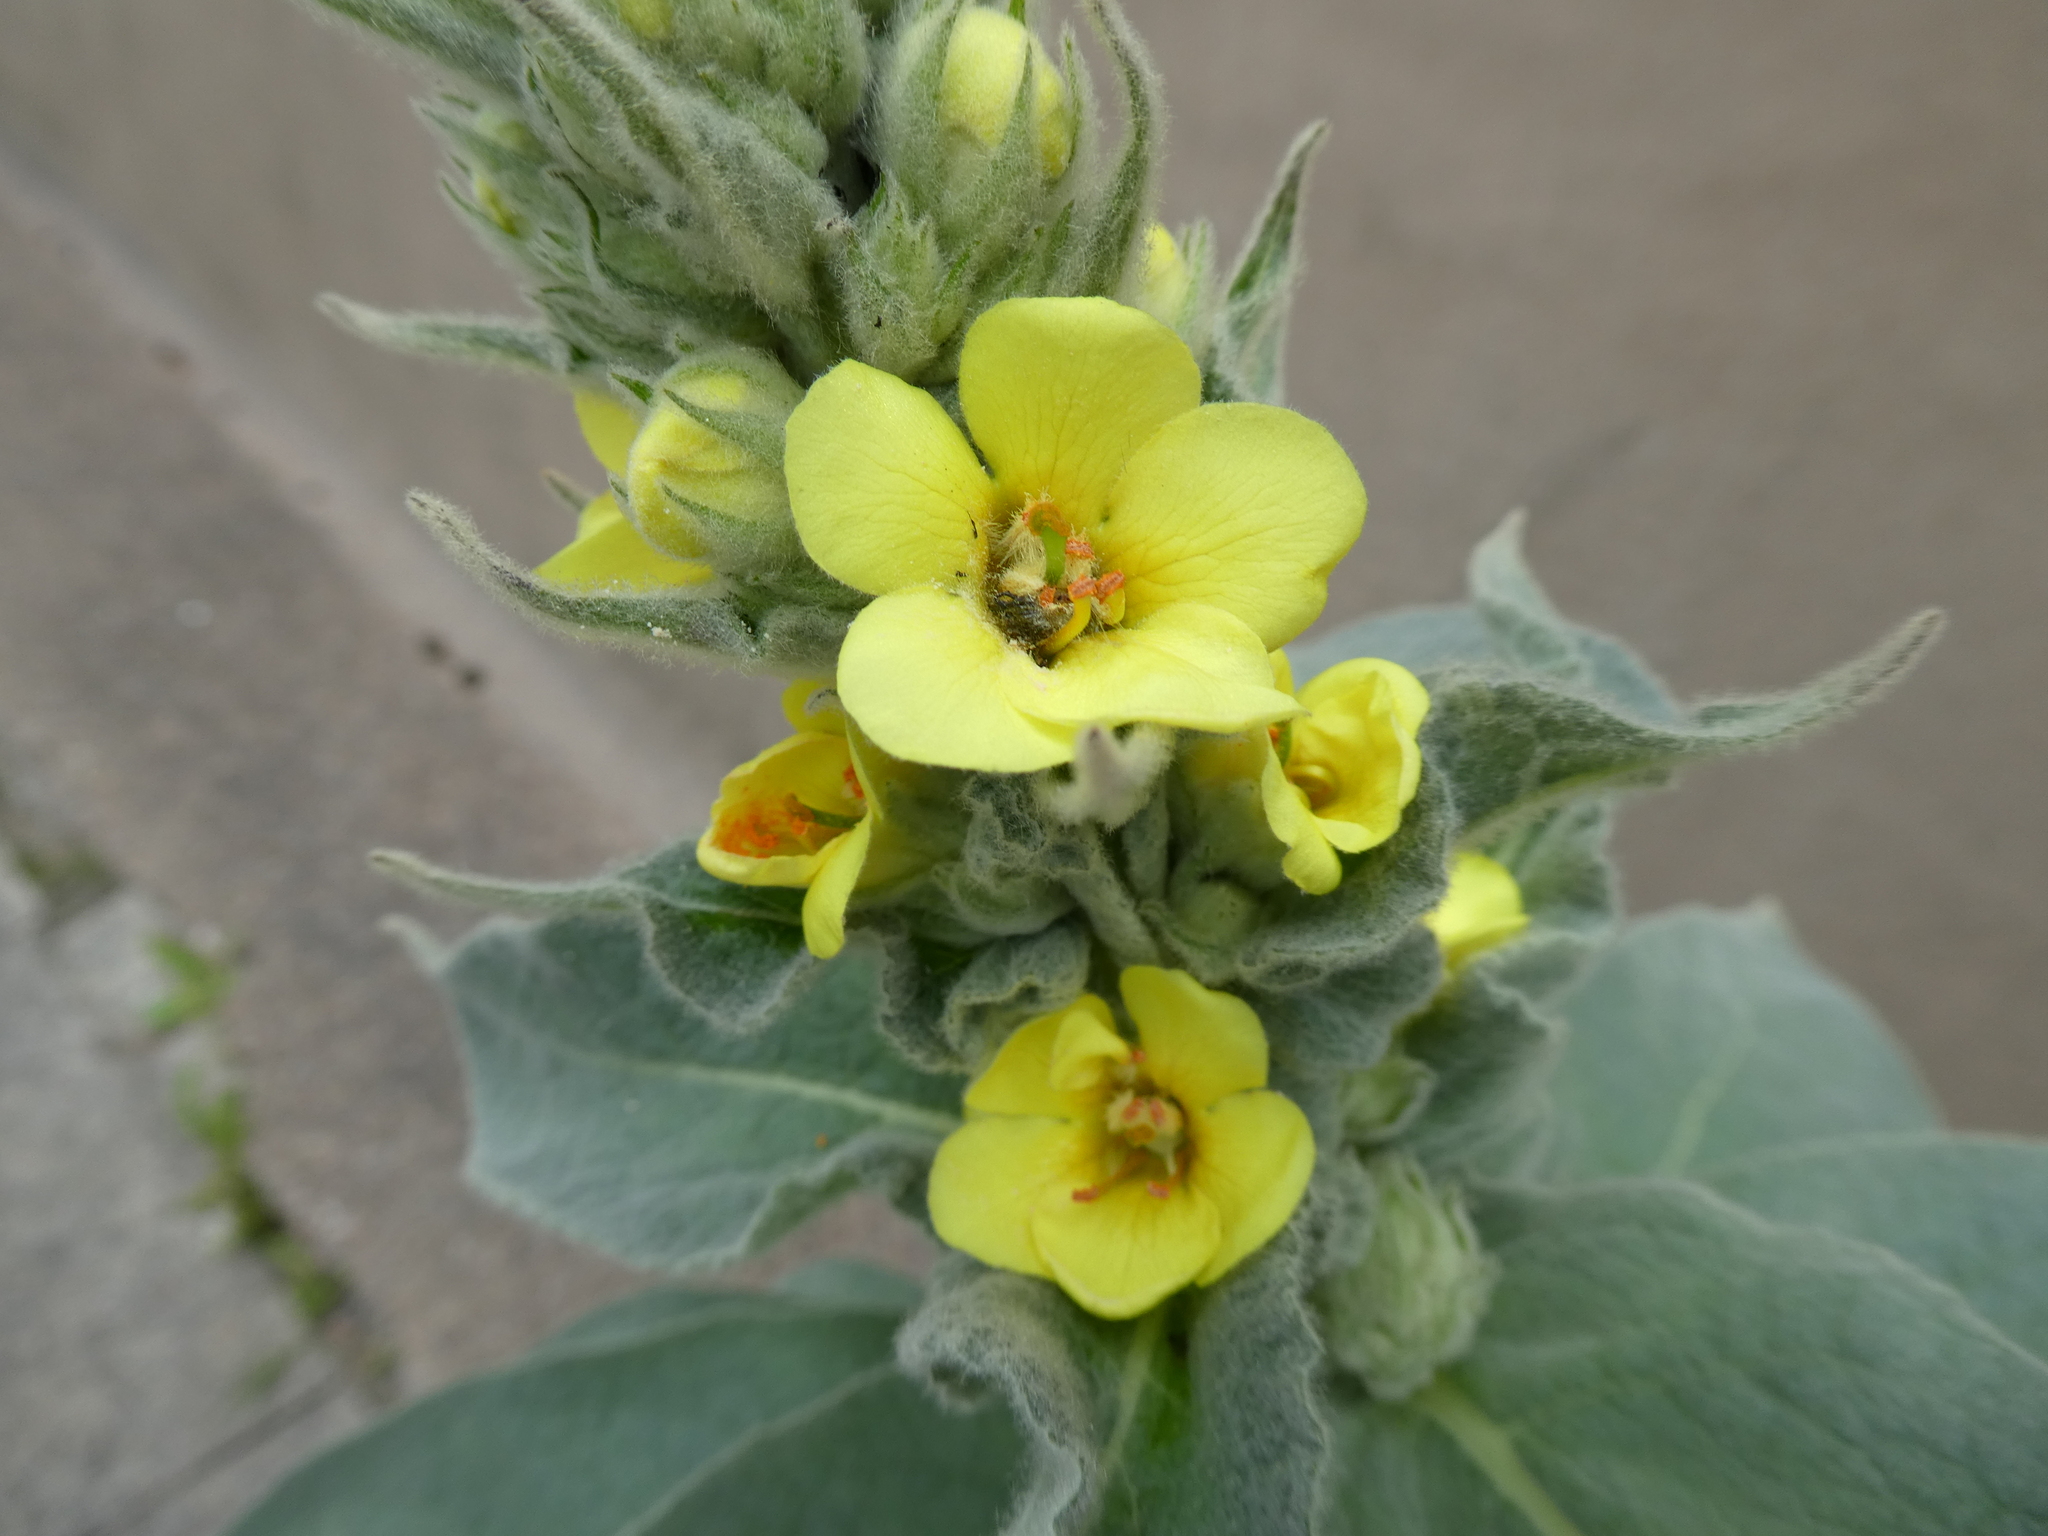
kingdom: Plantae
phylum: Tracheophyta
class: Magnoliopsida
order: Lamiales
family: Scrophulariaceae
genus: Verbascum
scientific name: Verbascum thapsus
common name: Common mullein
